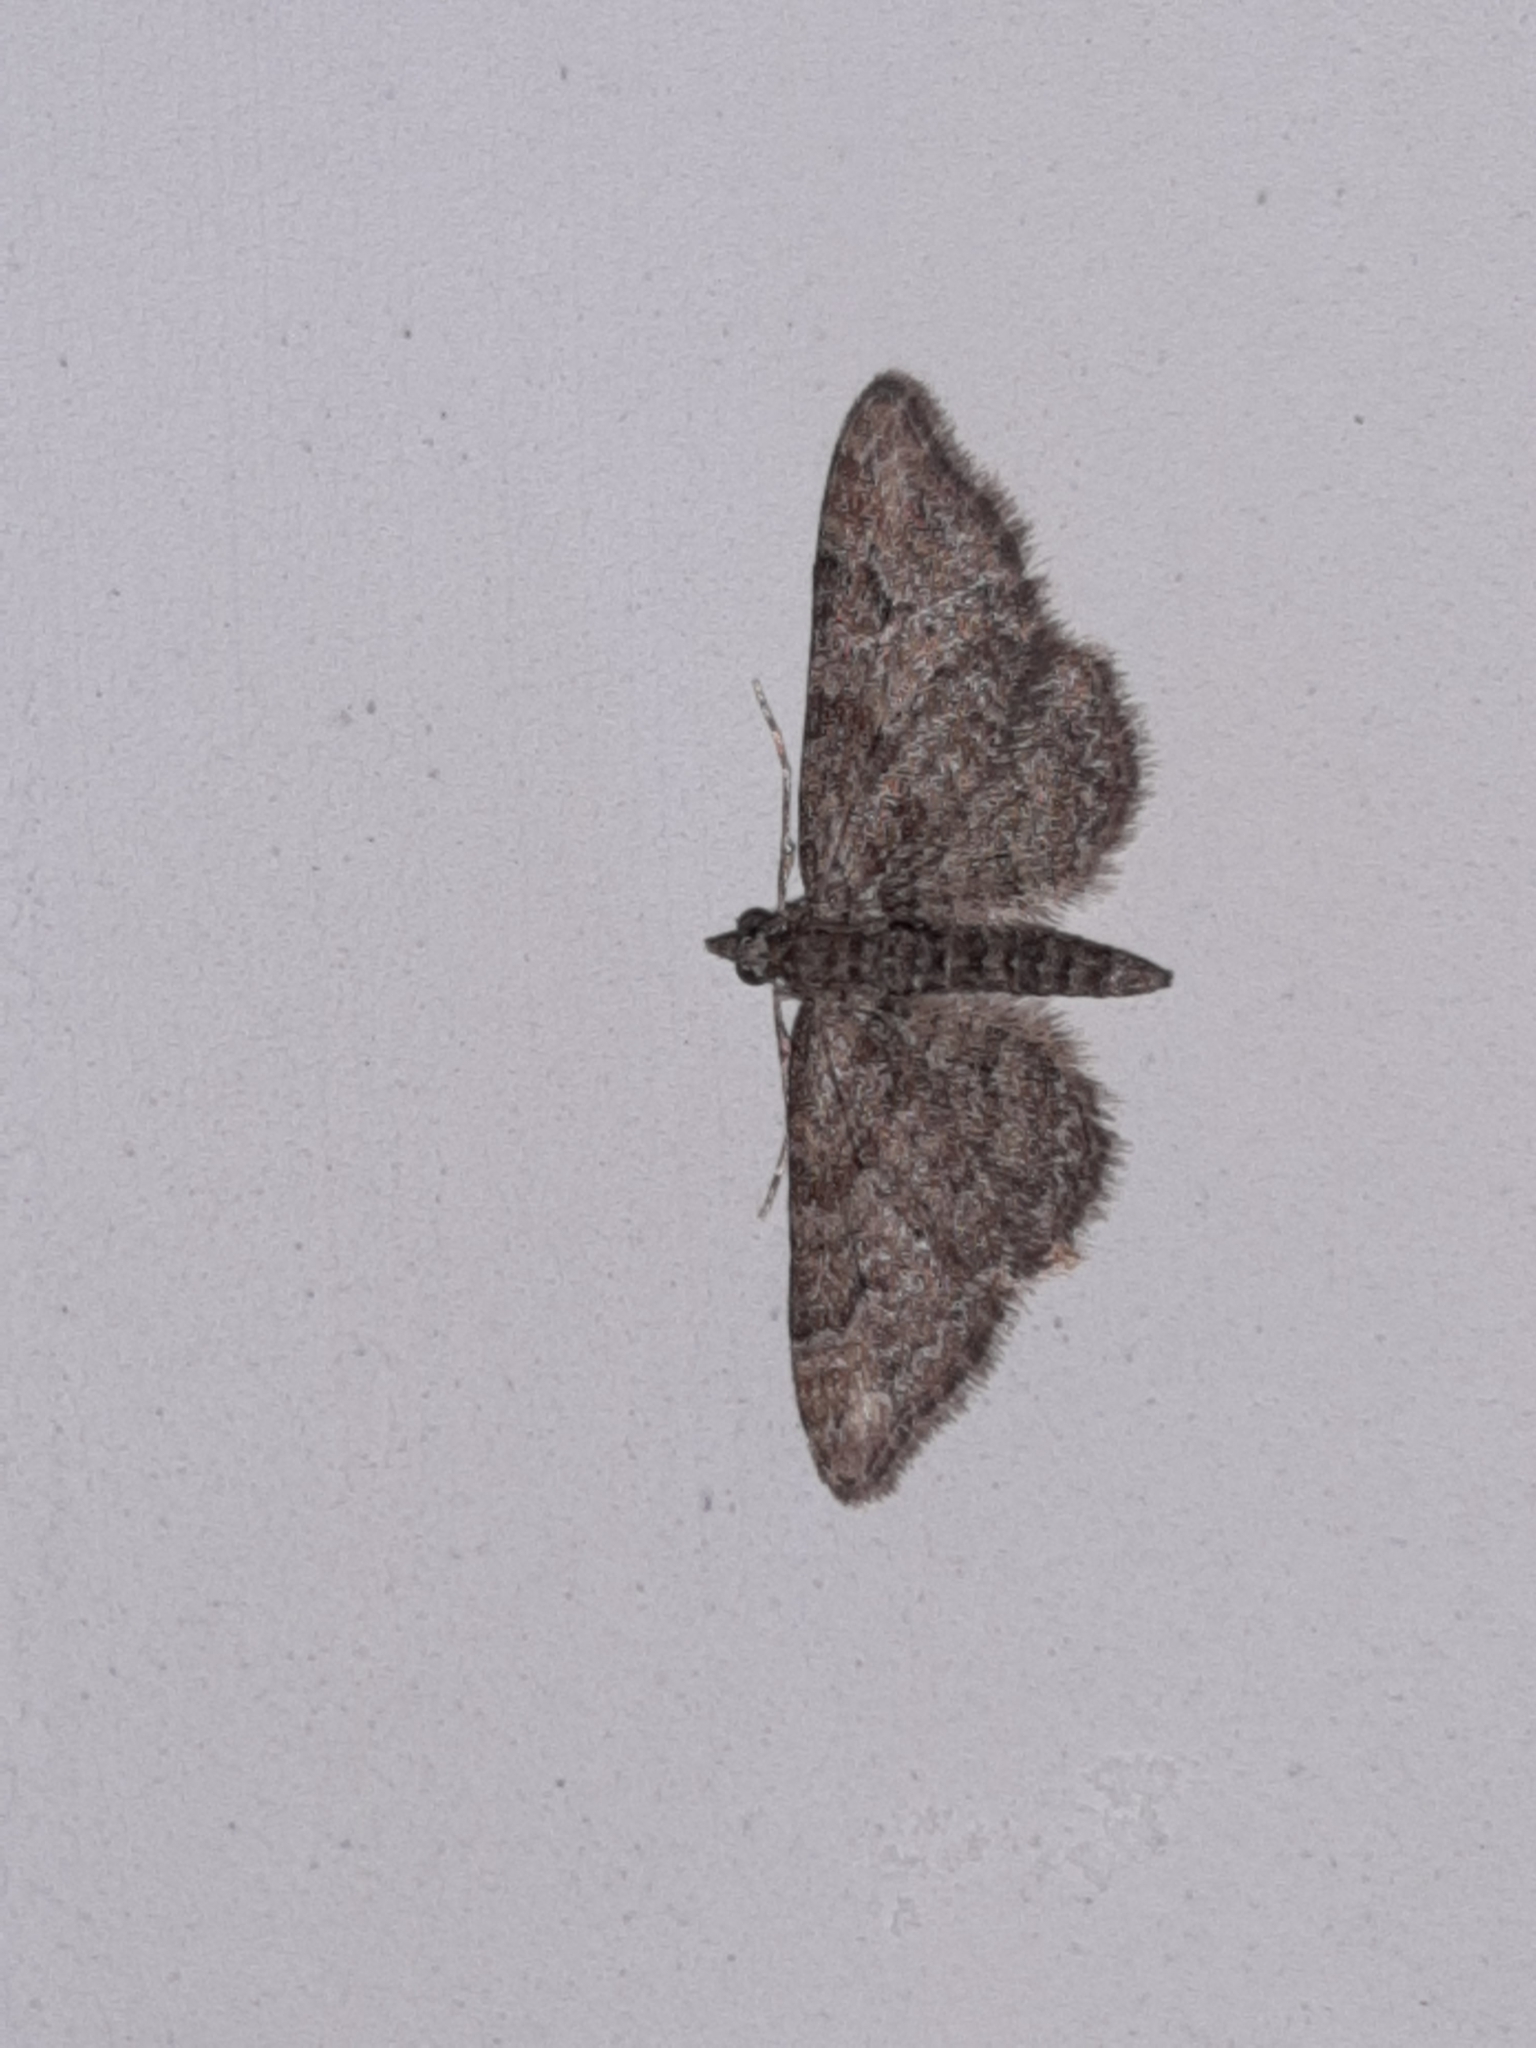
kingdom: Animalia
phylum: Arthropoda
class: Insecta
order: Lepidoptera
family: Geometridae
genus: Gymnoscelis
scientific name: Gymnoscelis rufifasciata
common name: Double-striped pug
